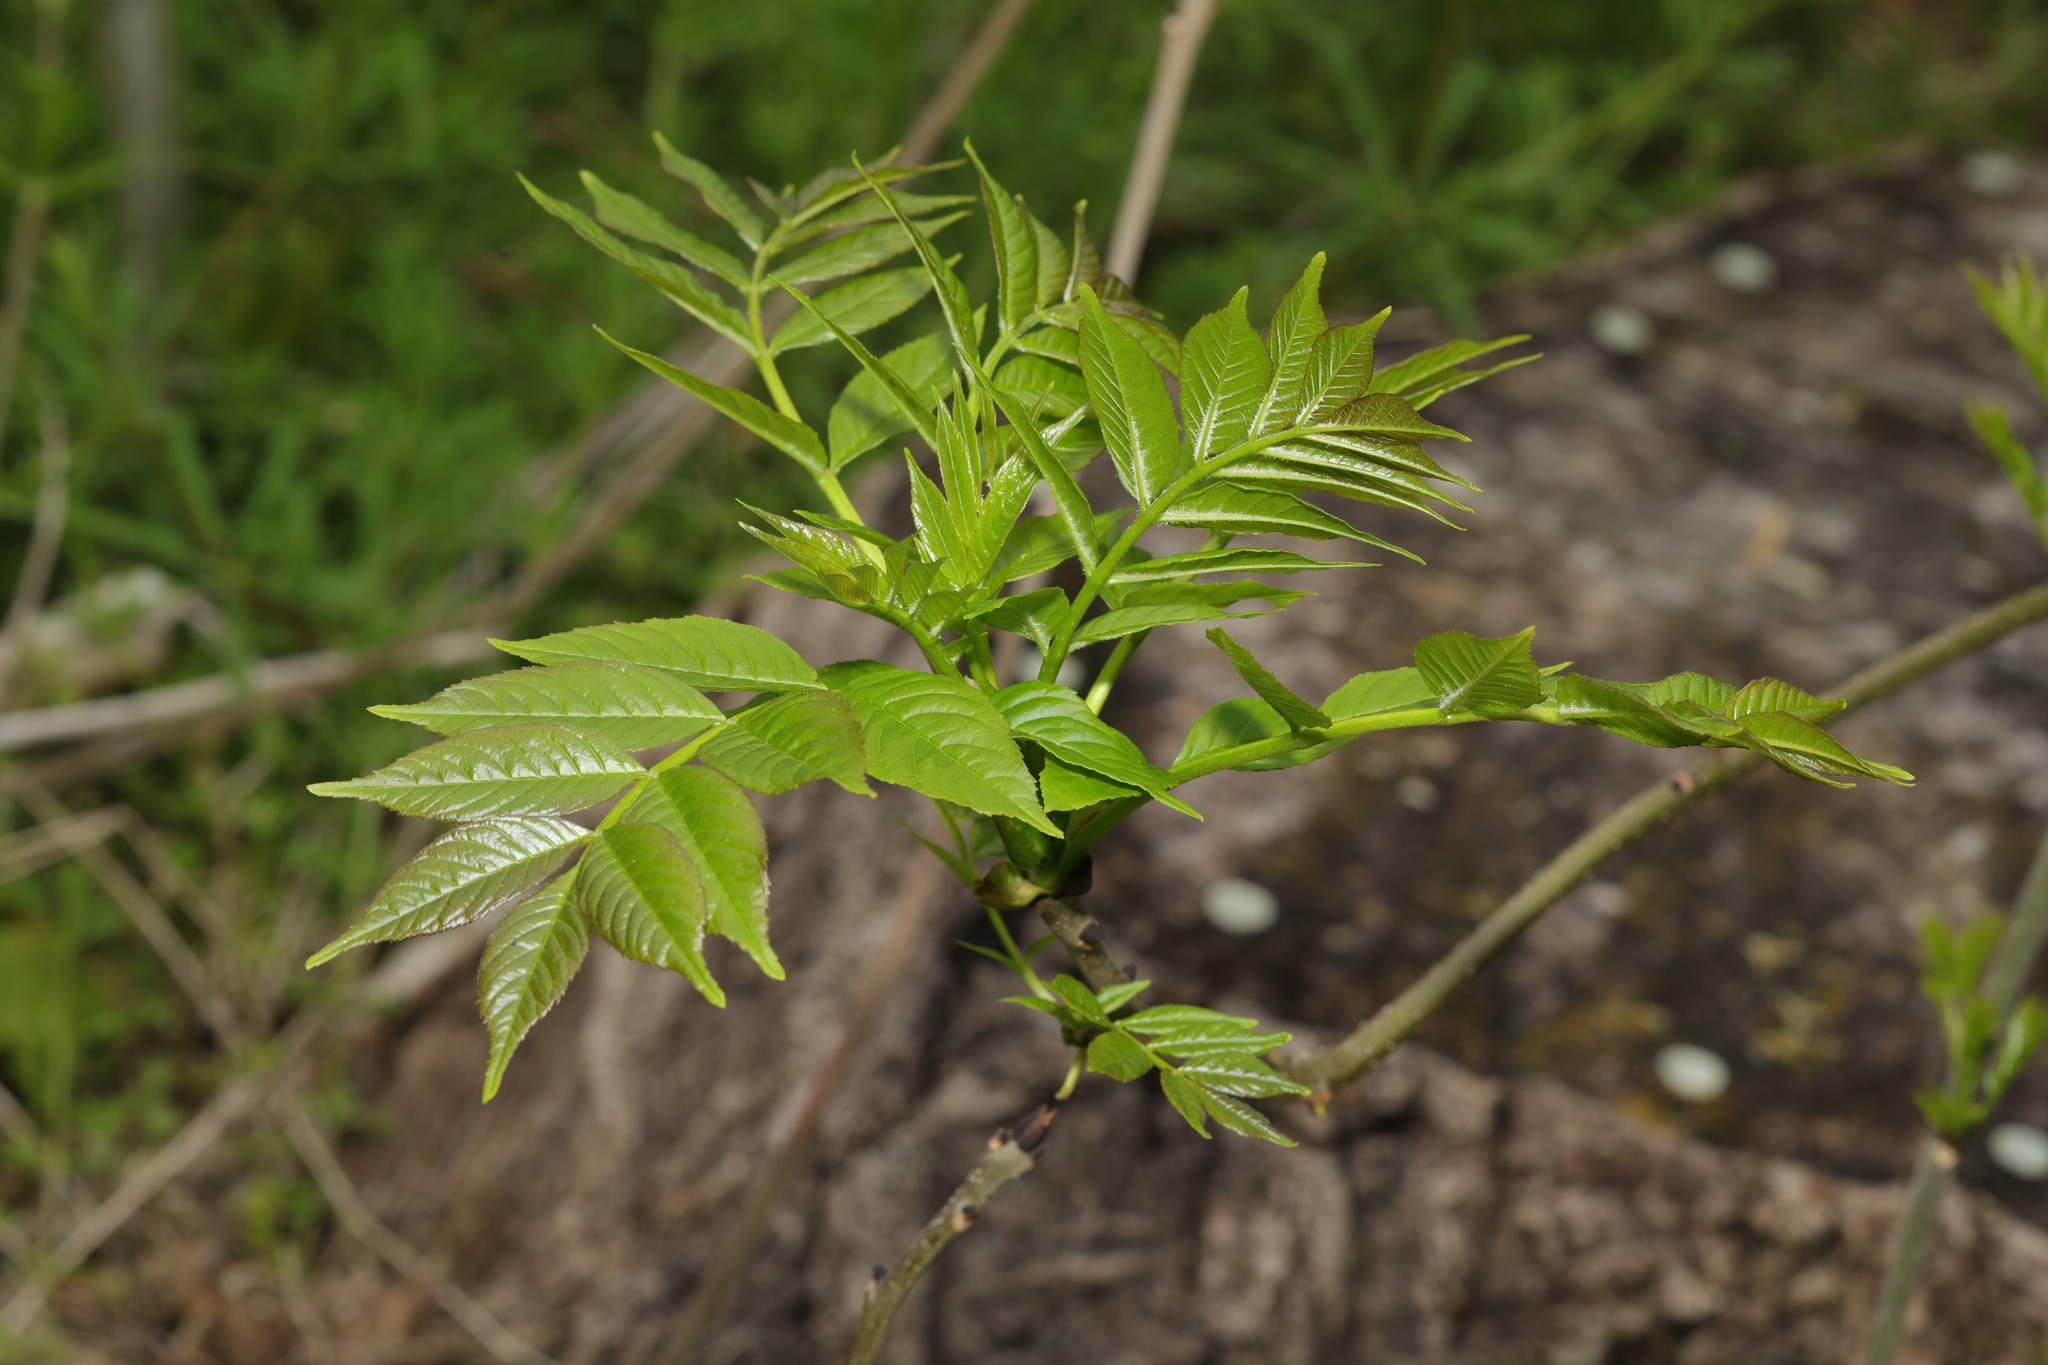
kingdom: Plantae
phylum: Tracheophyta
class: Magnoliopsida
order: Lamiales
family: Oleaceae
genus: Fraxinus
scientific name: Fraxinus excelsior
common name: European ash
